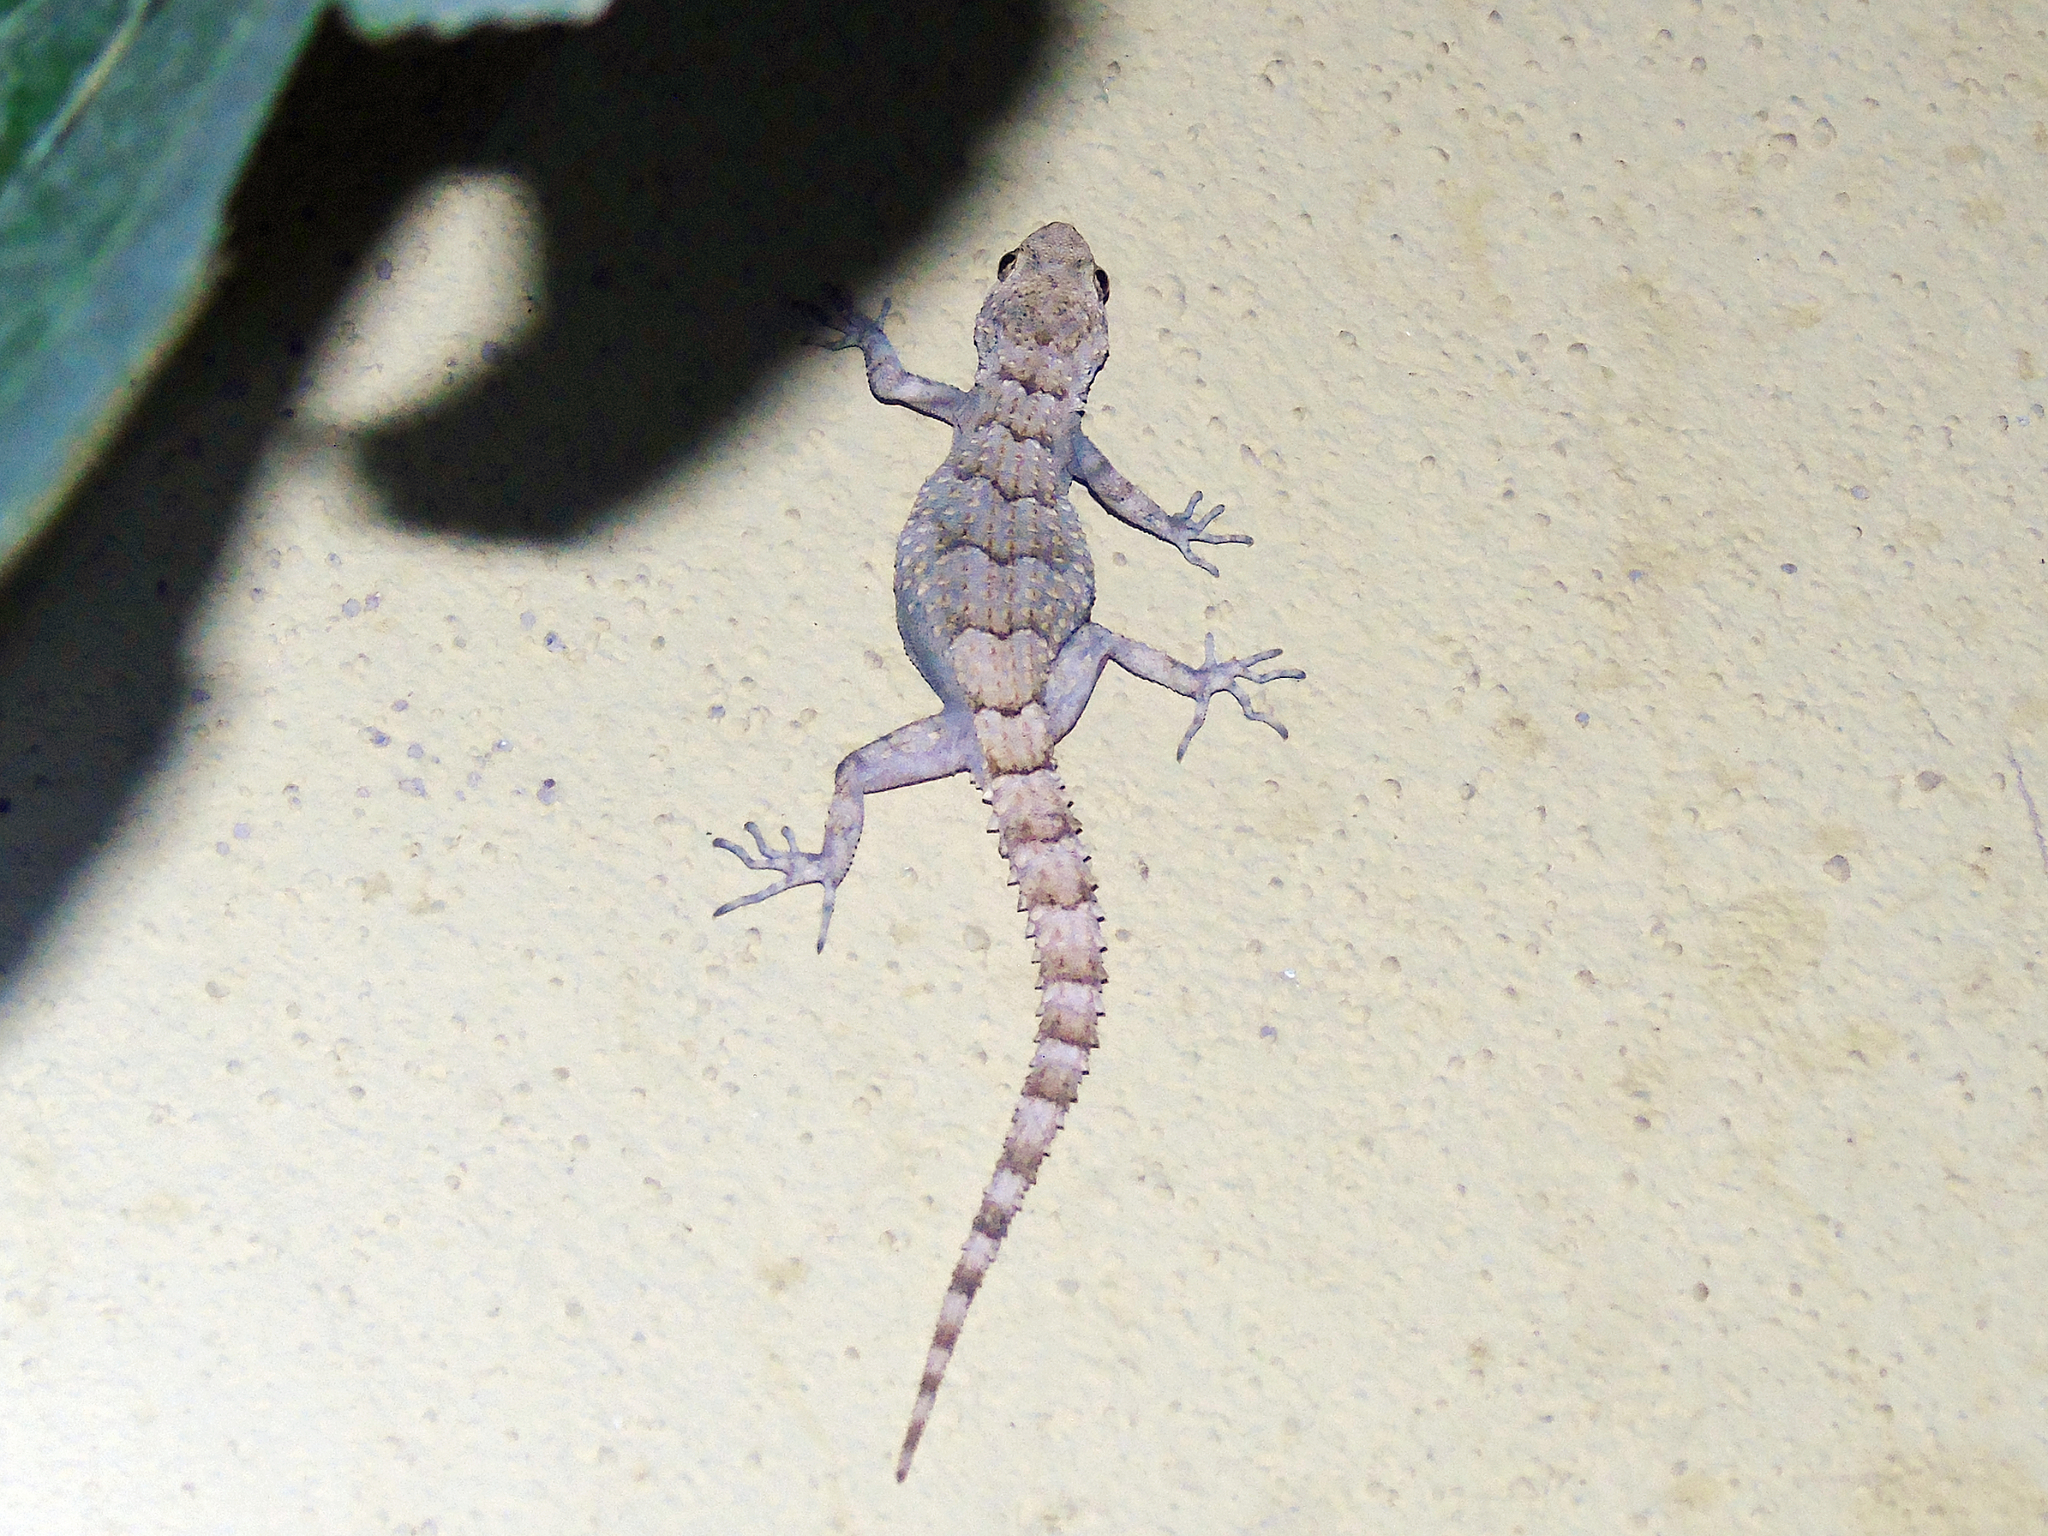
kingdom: Animalia
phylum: Chordata
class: Squamata
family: Gekkonidae
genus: Mediodactylus
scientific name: Mediodactylus heterocercus
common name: Asia minor thin-toed gecko
